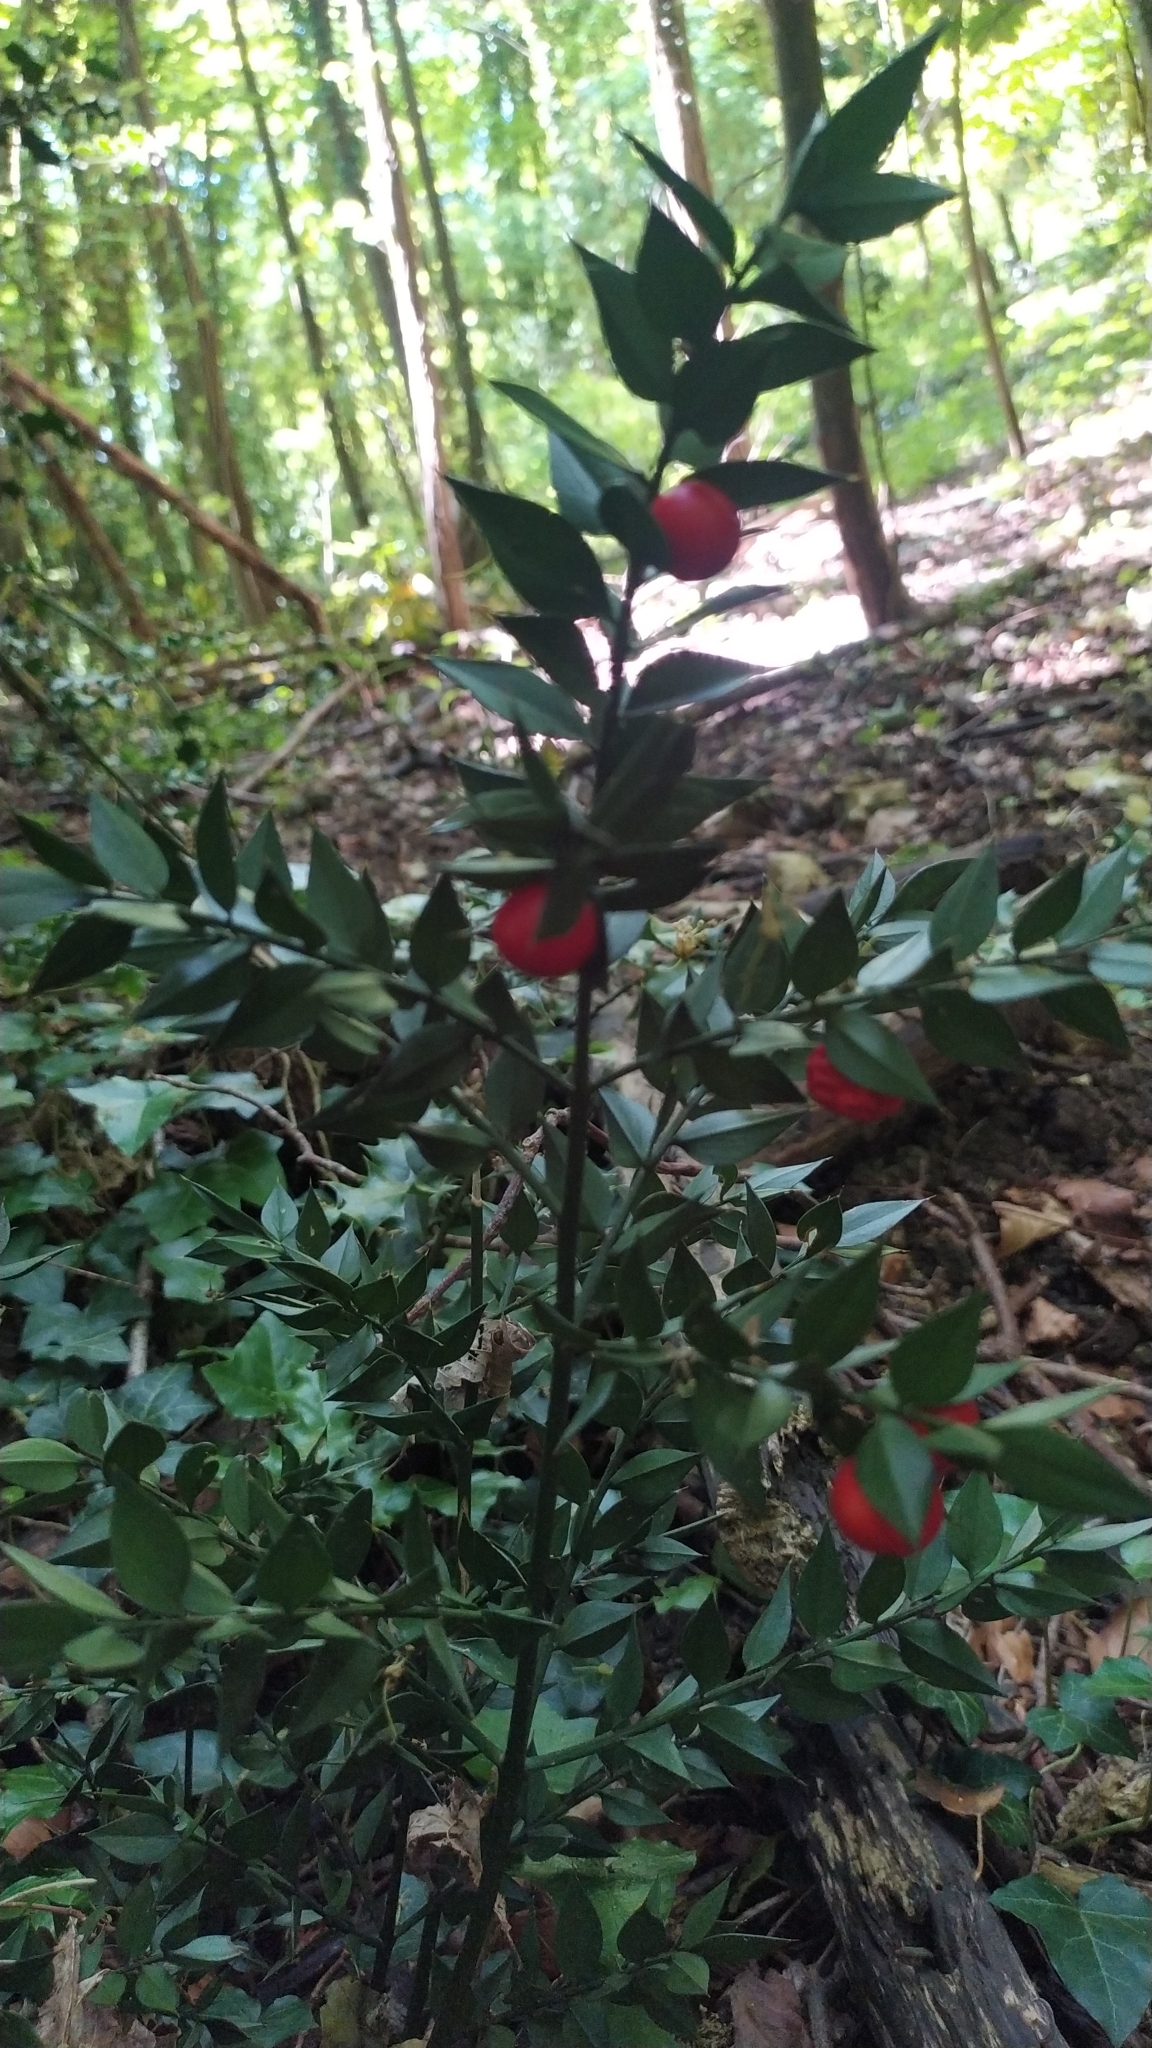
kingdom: Plantae
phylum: Tracheophyta
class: Liliopsida
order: Asparagales
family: Asparagaceae
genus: Ruscus
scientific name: Ruscus aculeatus
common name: Butcher's-broom
